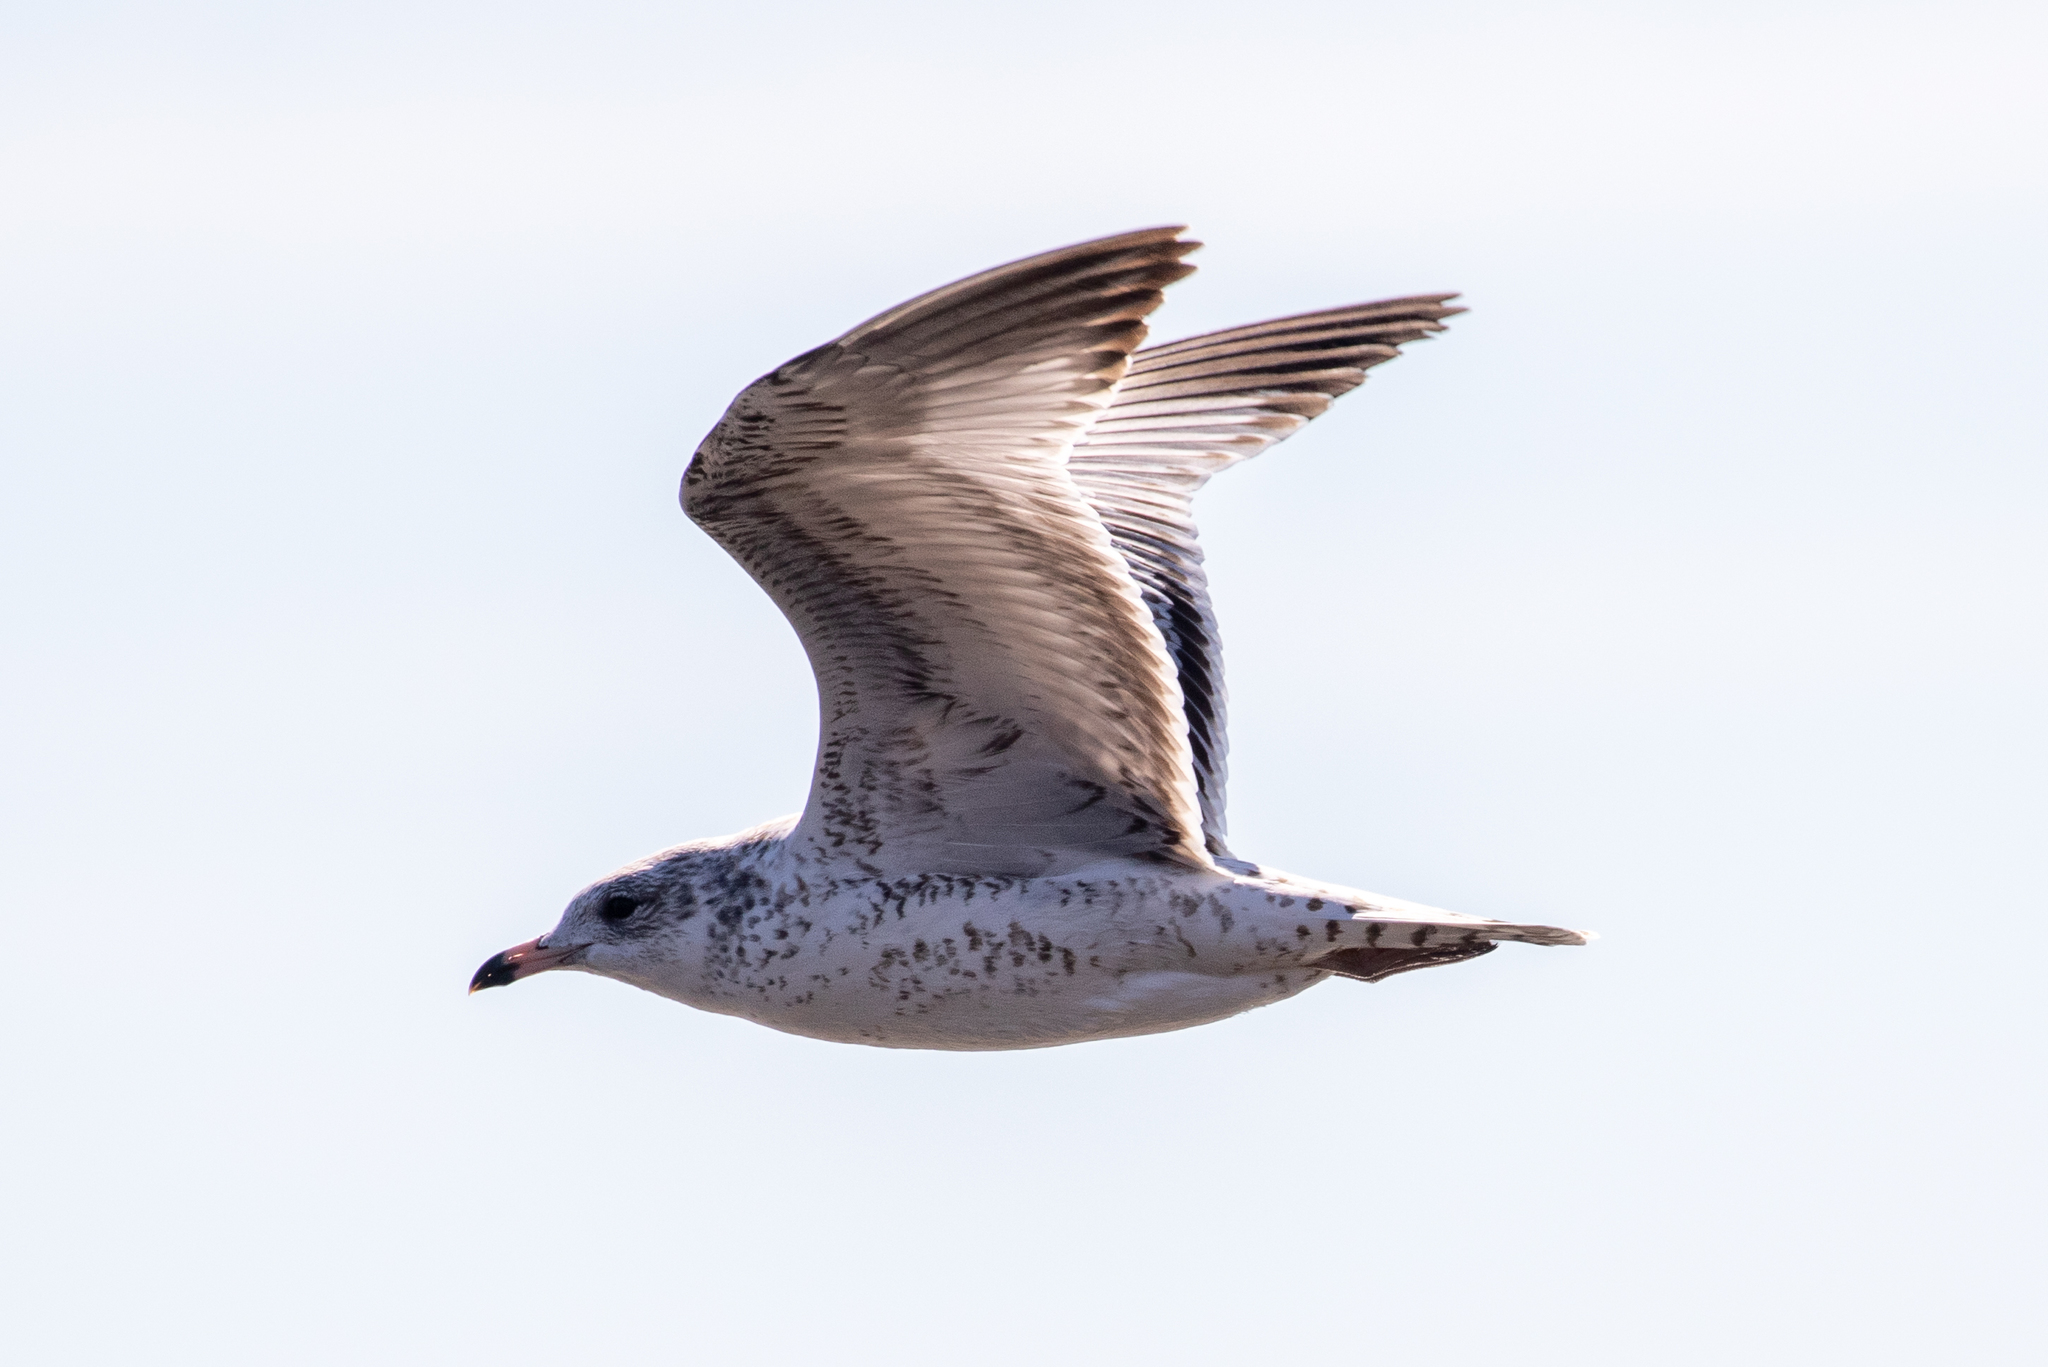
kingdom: Animalia
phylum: Chordata
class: Aves
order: Charadriiformes
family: Laridae
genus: Larus
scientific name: Larus delawarensis
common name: Ring-billed gull
